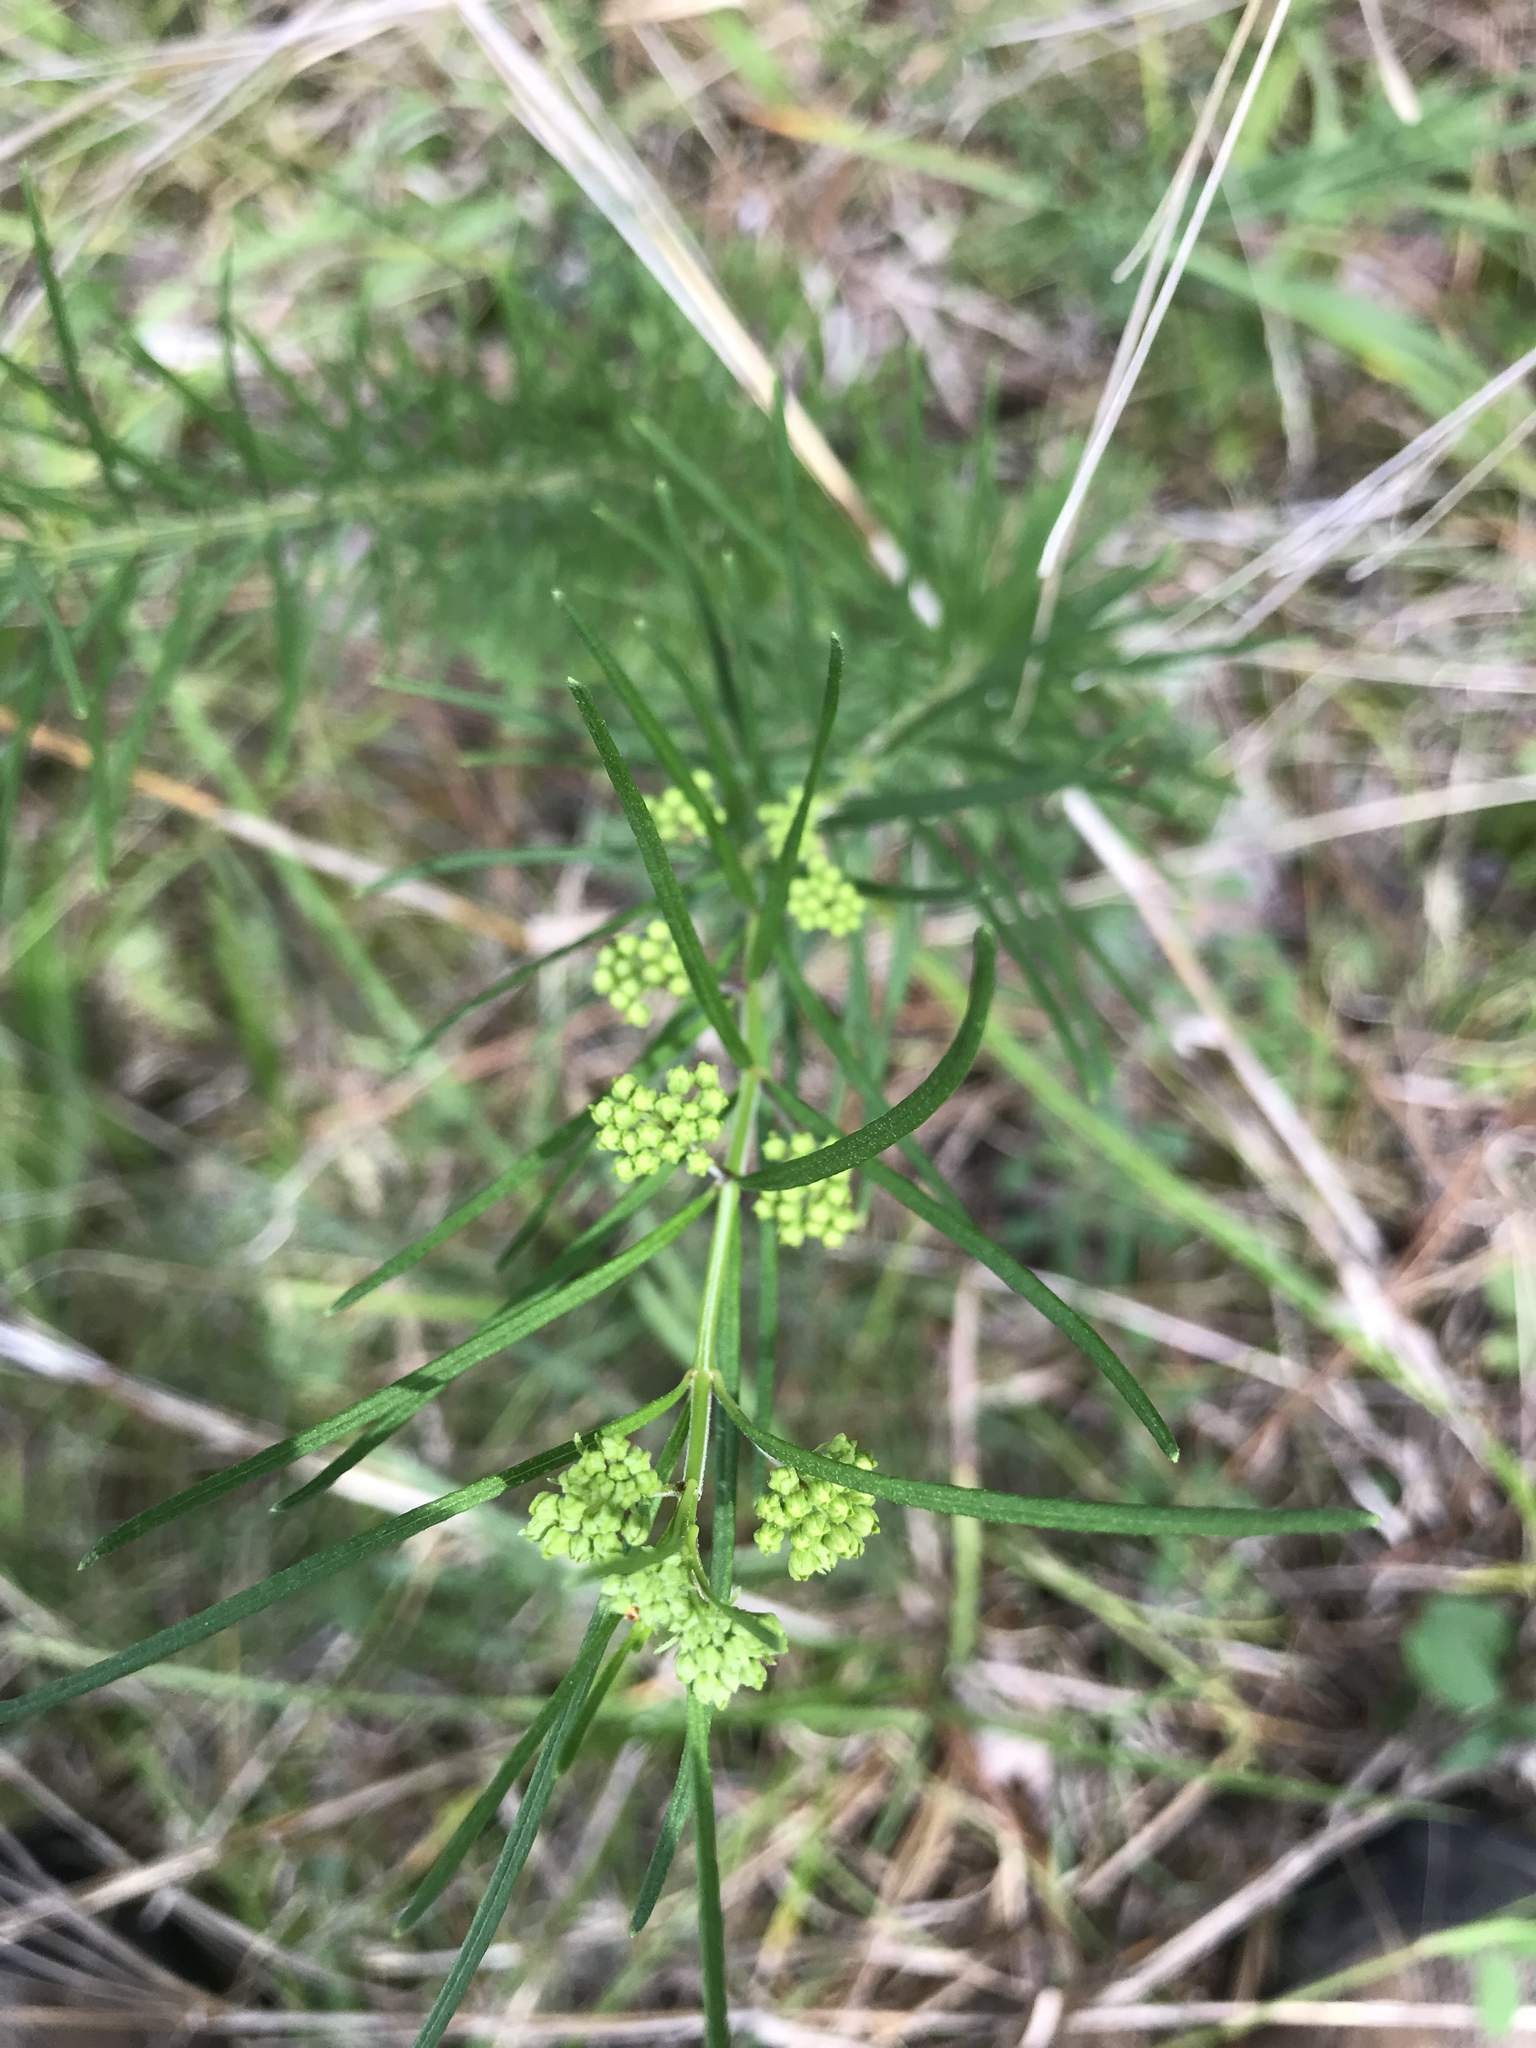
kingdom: Plantae
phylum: Tracheophyta
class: Magnoliopsida
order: Gentianales
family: Apocynaceae
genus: Asclepias
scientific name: Asclepias verticillata
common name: Eastern whorled milkweed
